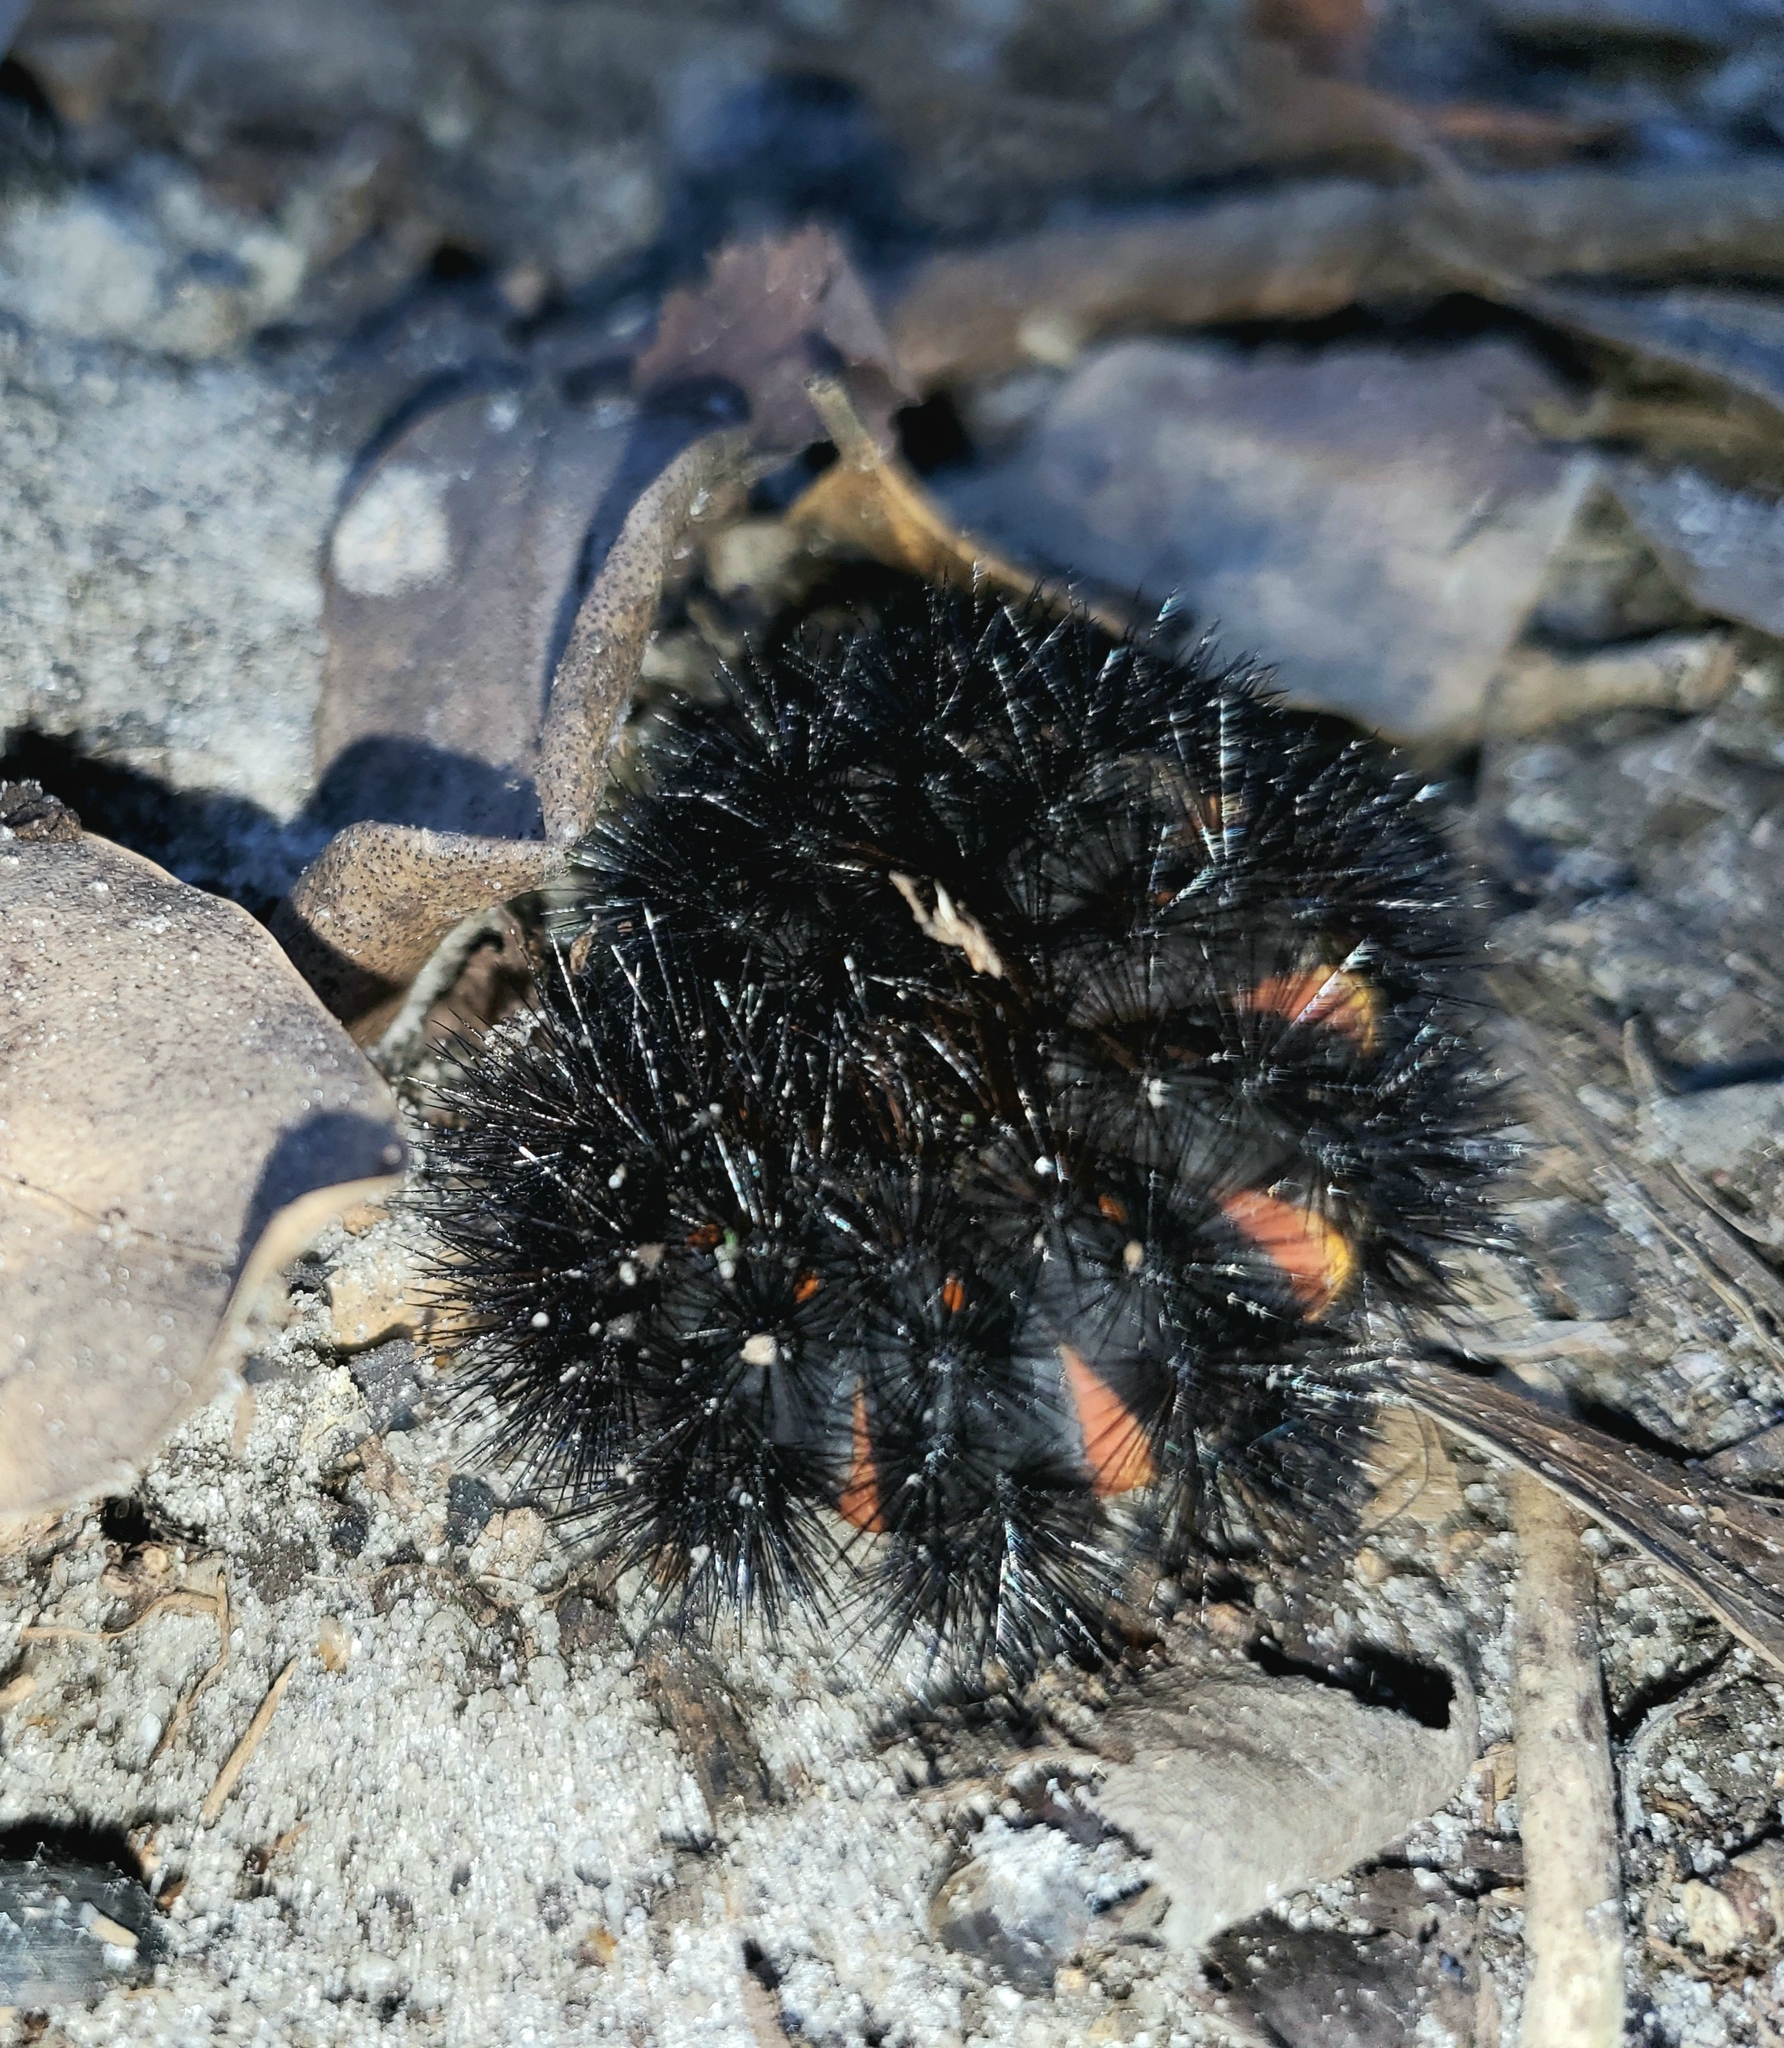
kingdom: Animalia
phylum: Arthropoda
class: Insecta
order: Lepidoptera
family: Erebidae
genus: Hypercompe
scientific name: Hypercompe scribonia
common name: Giant leopard moth
